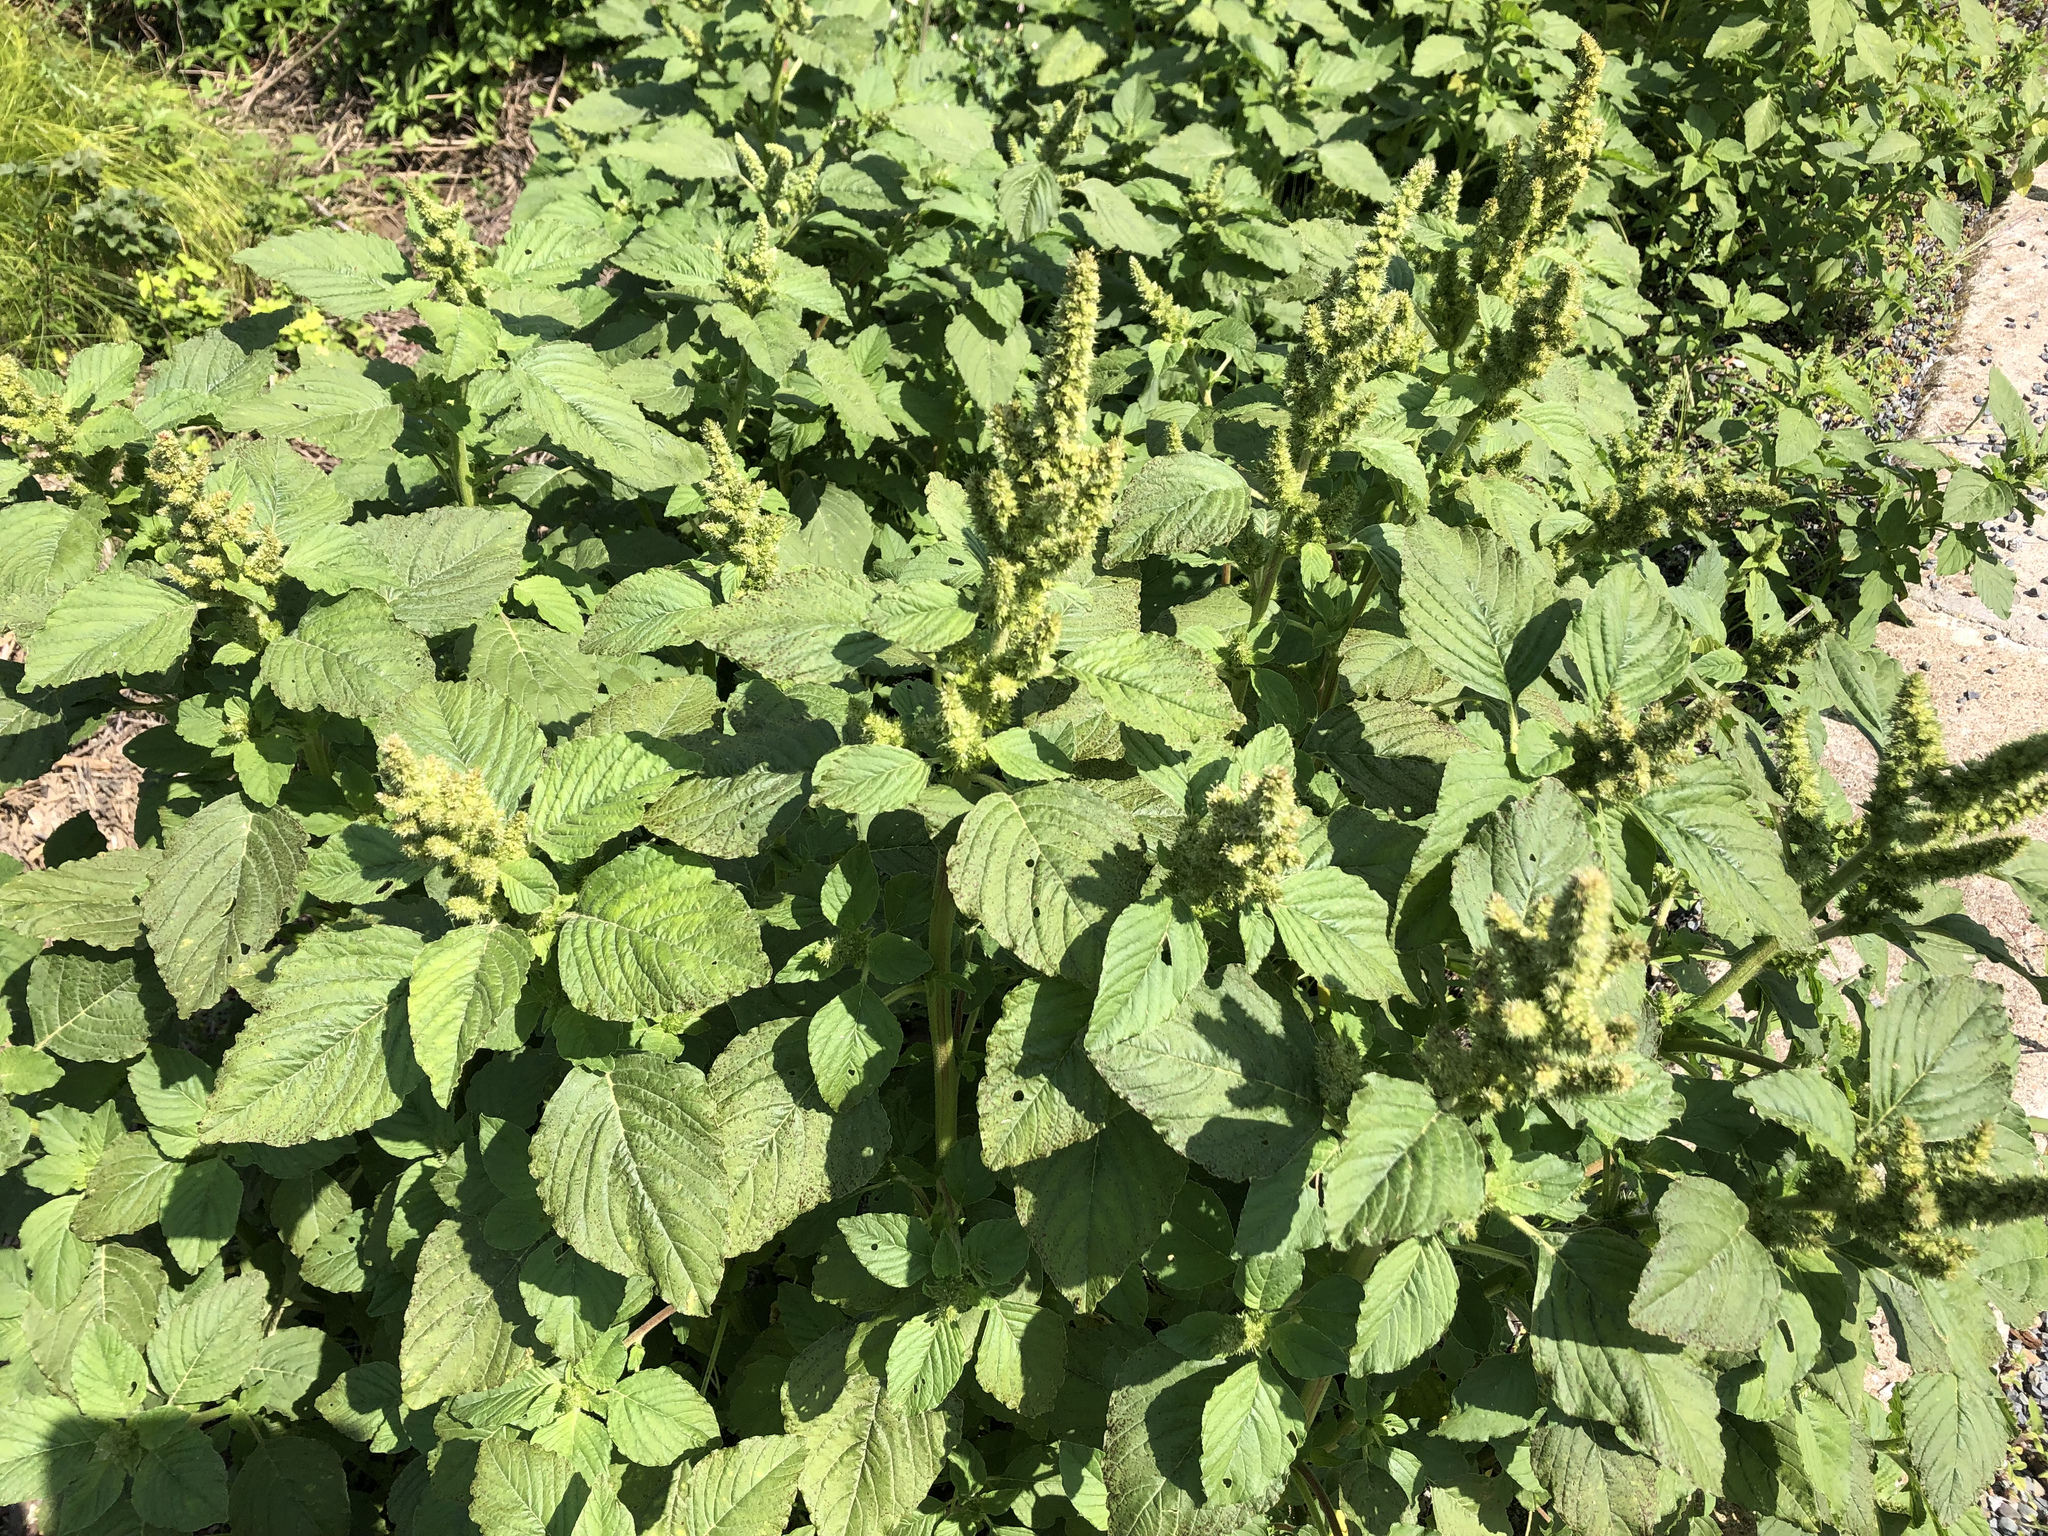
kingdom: Plantae
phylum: Tracheophyta
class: Magnoliopsida
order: Caryophyllales
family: Amaranthaceae
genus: Amaranthus
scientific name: Amaranthus retroflexus
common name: Redroot amaranth
